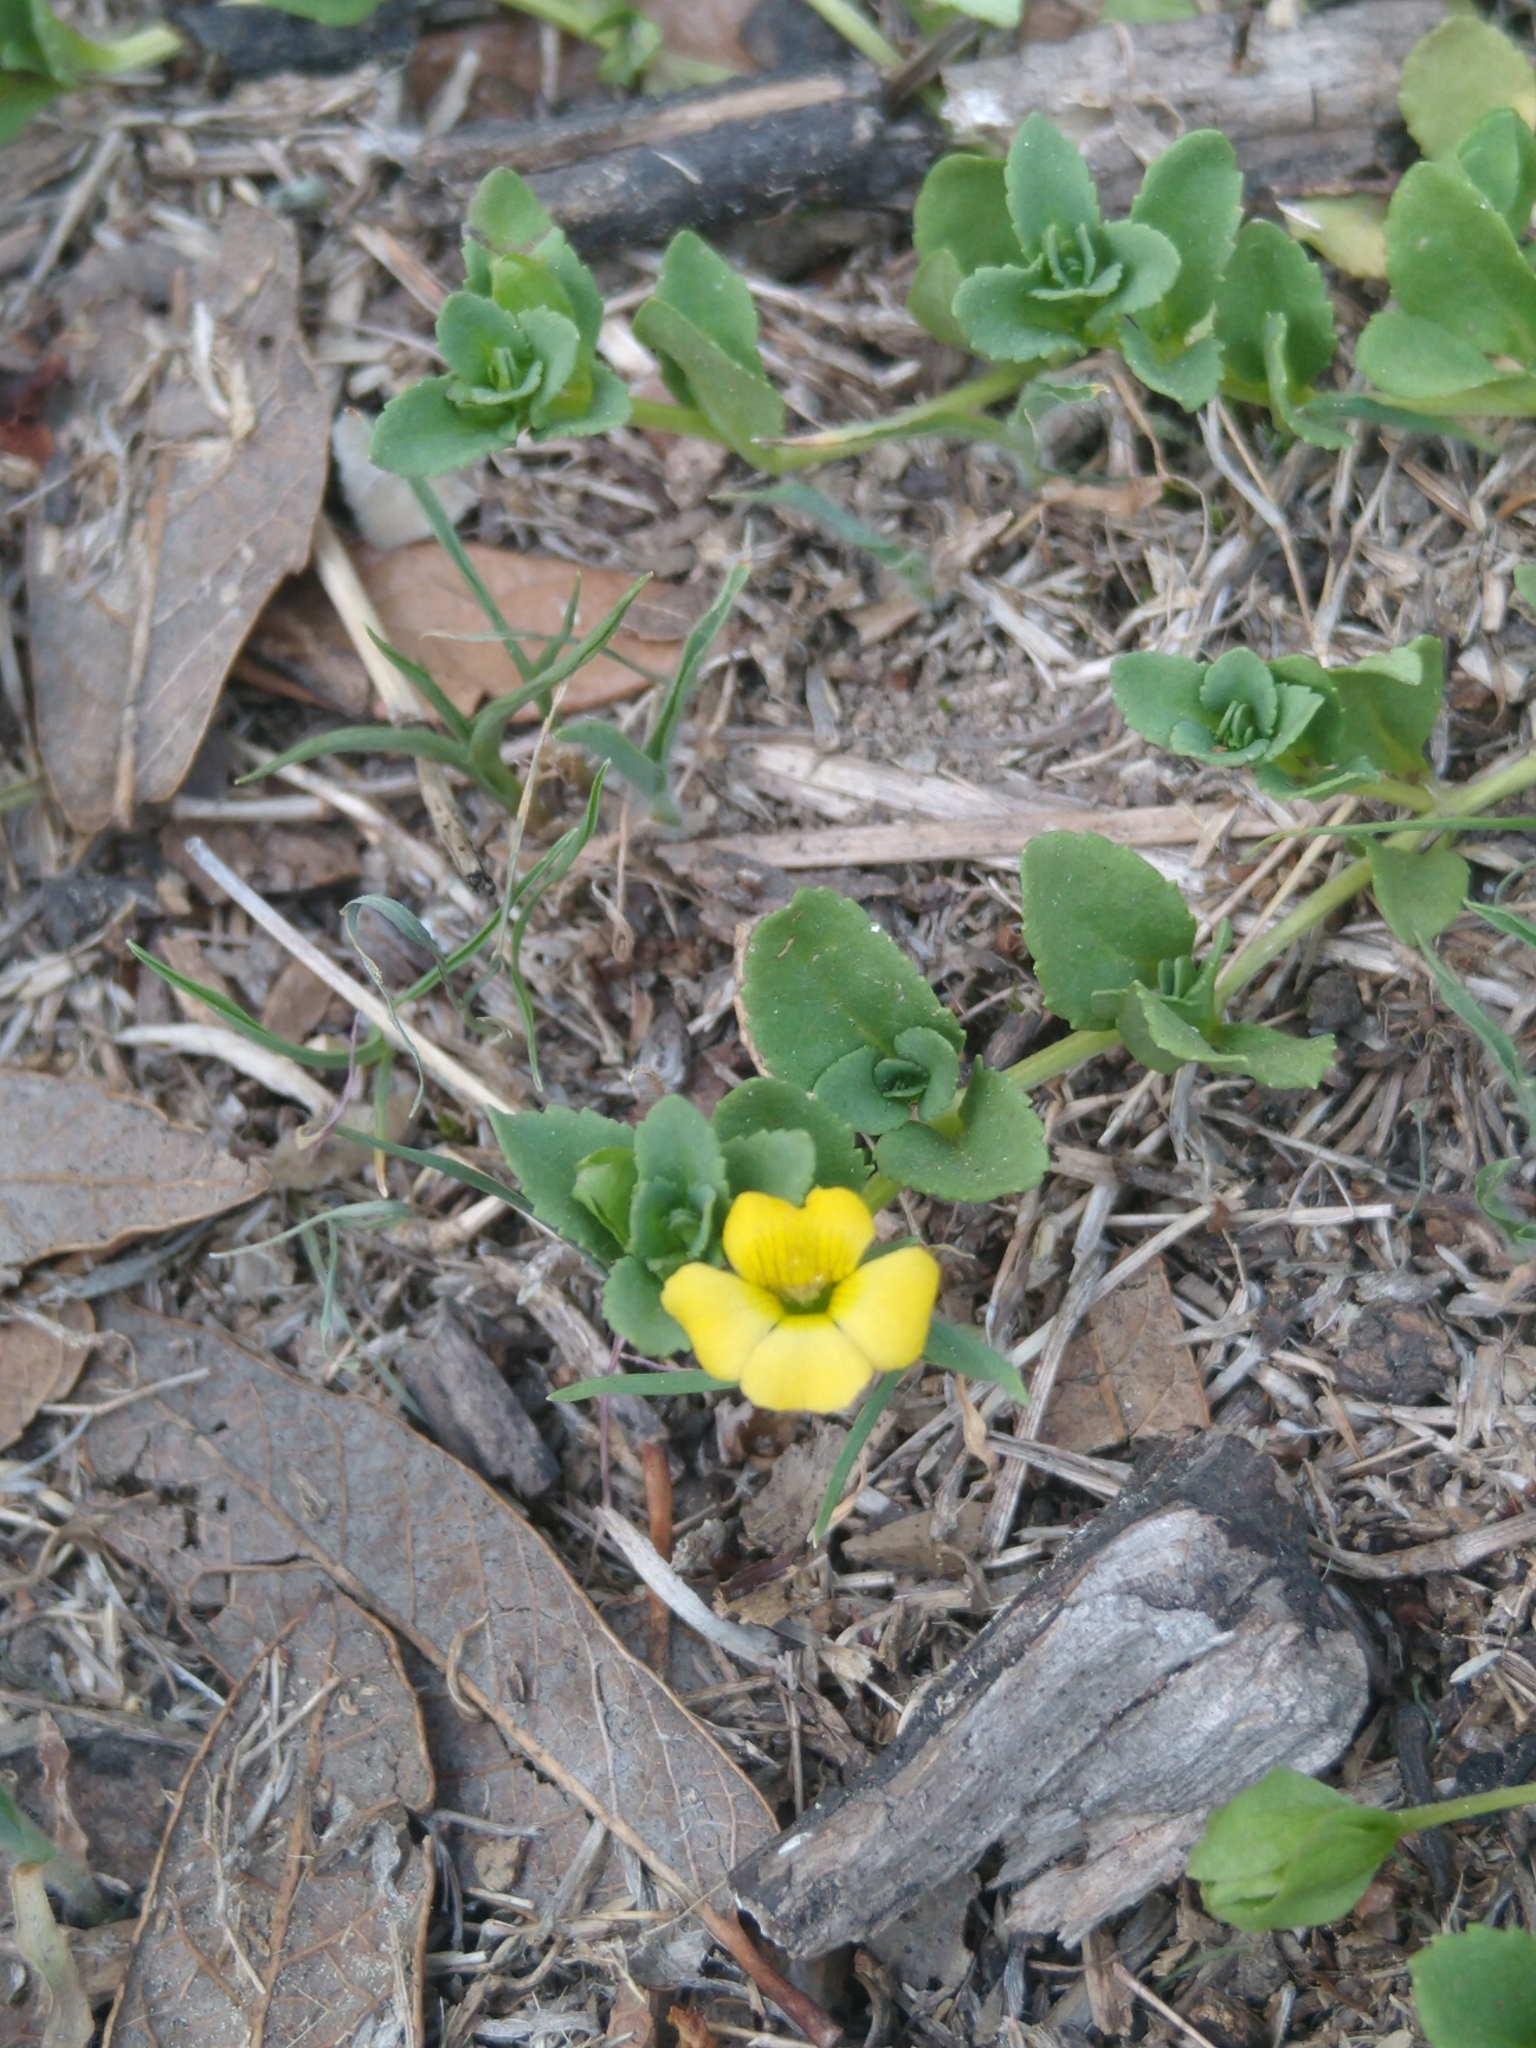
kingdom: Plantae
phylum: Tracheophyta
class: Magnoliopsida
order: Lamiales
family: Plantaginaceae
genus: Mecardonia
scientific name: Mecardonia procumbens
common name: Baby jump-up
